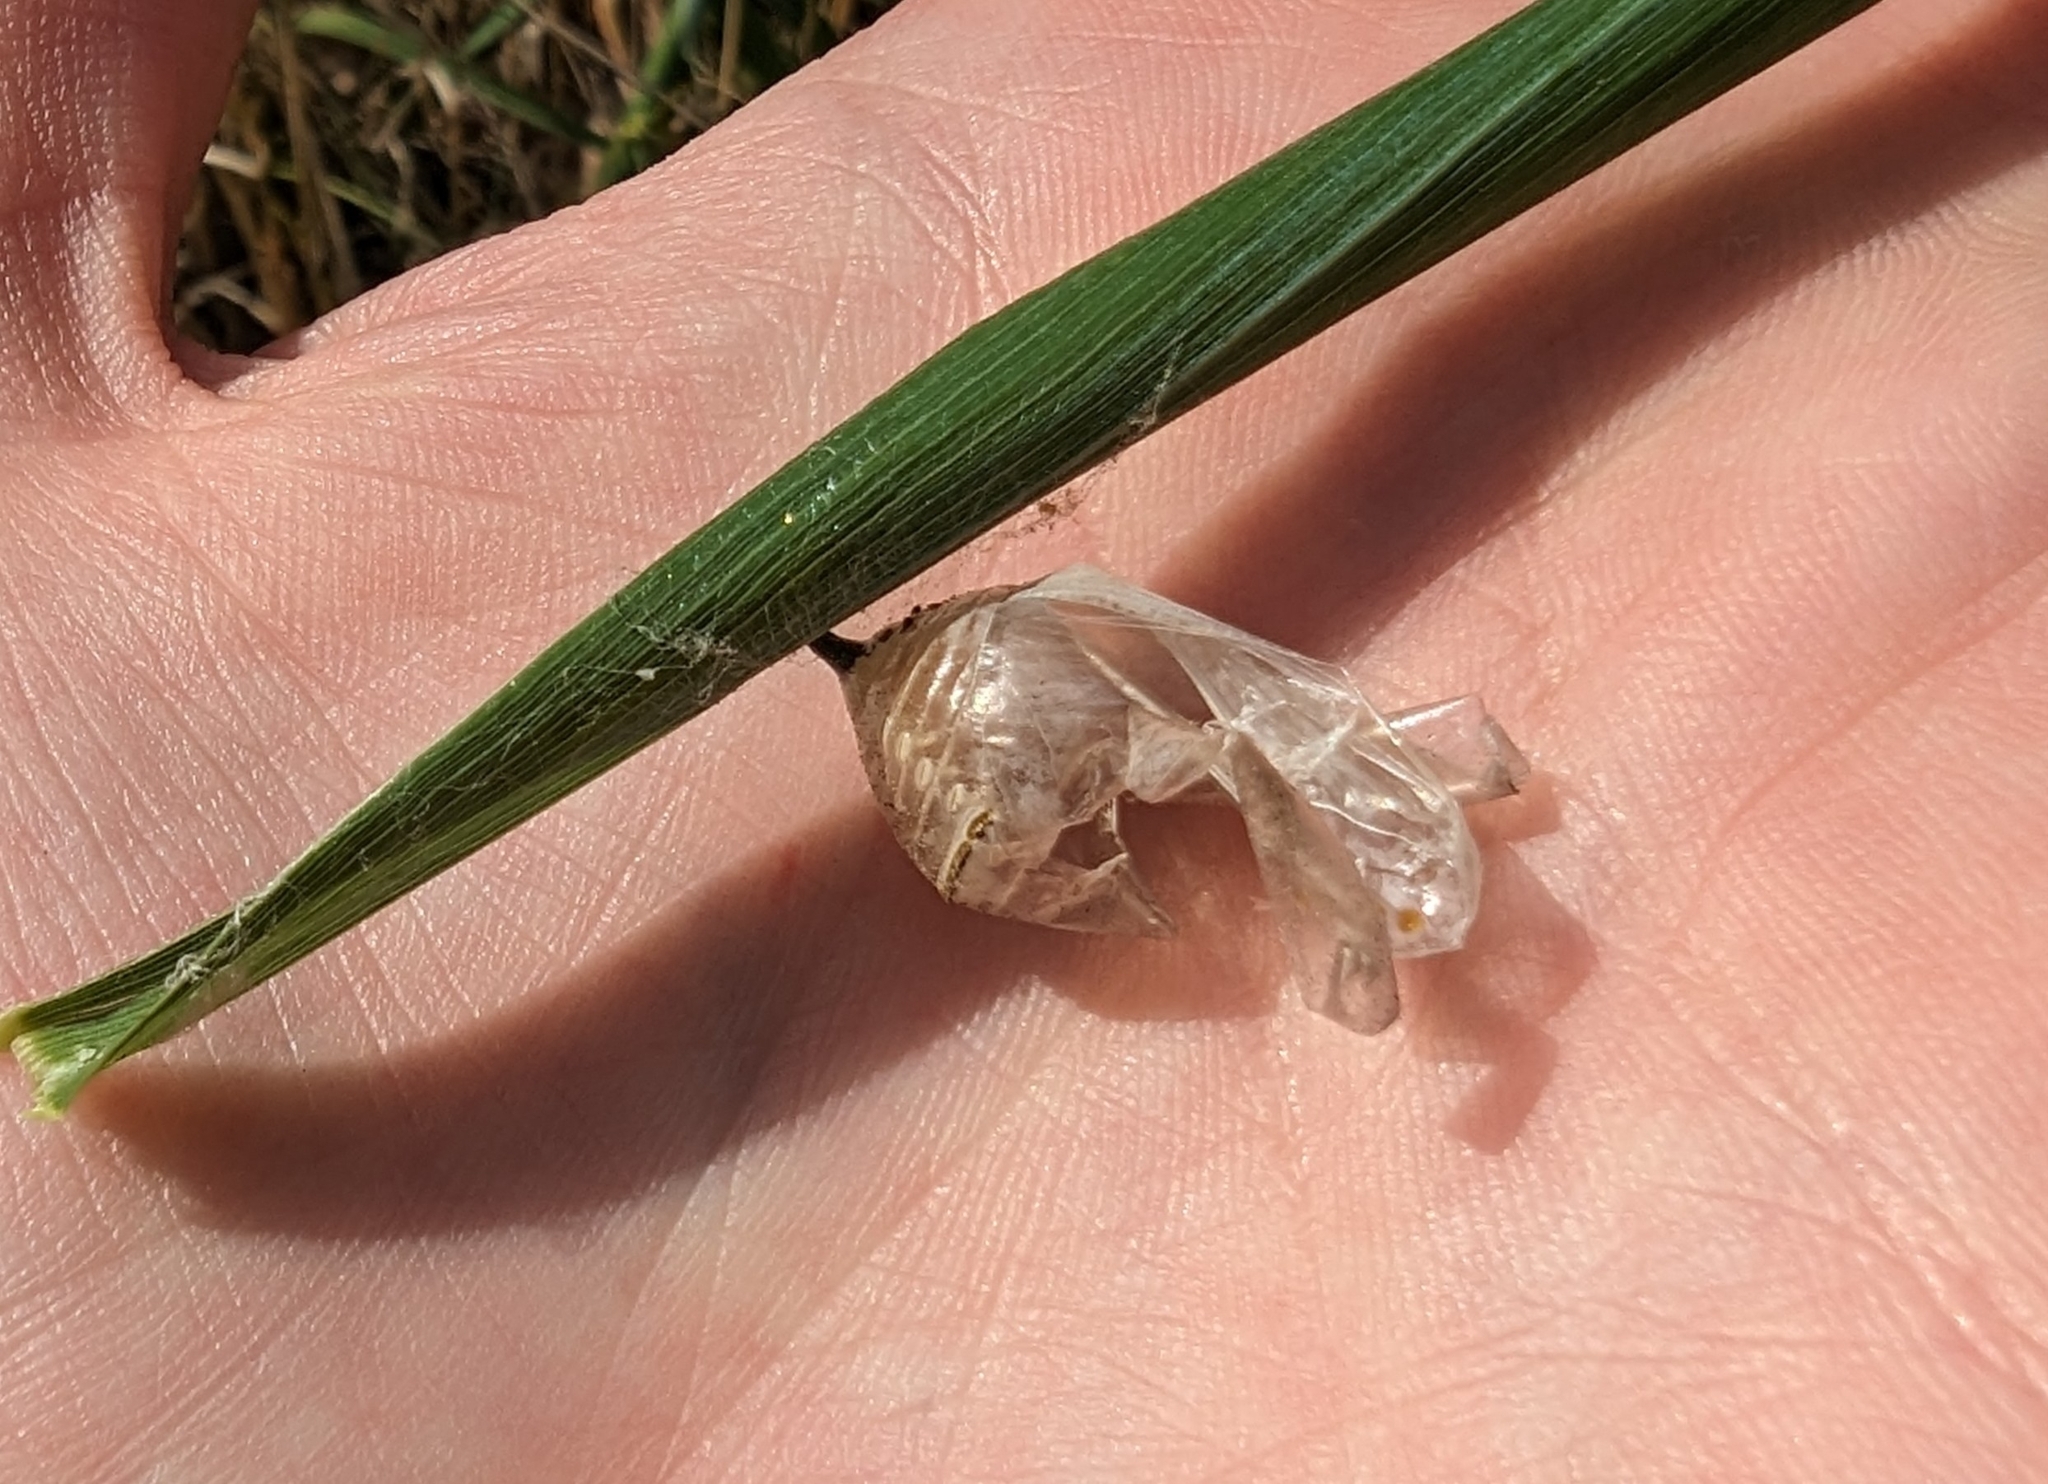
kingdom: Animalia
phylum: Arthropoda
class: Insecta
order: Lepidoptera
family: Nymphalidae
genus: Danaus
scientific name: Danaus plexippus
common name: Monarch
